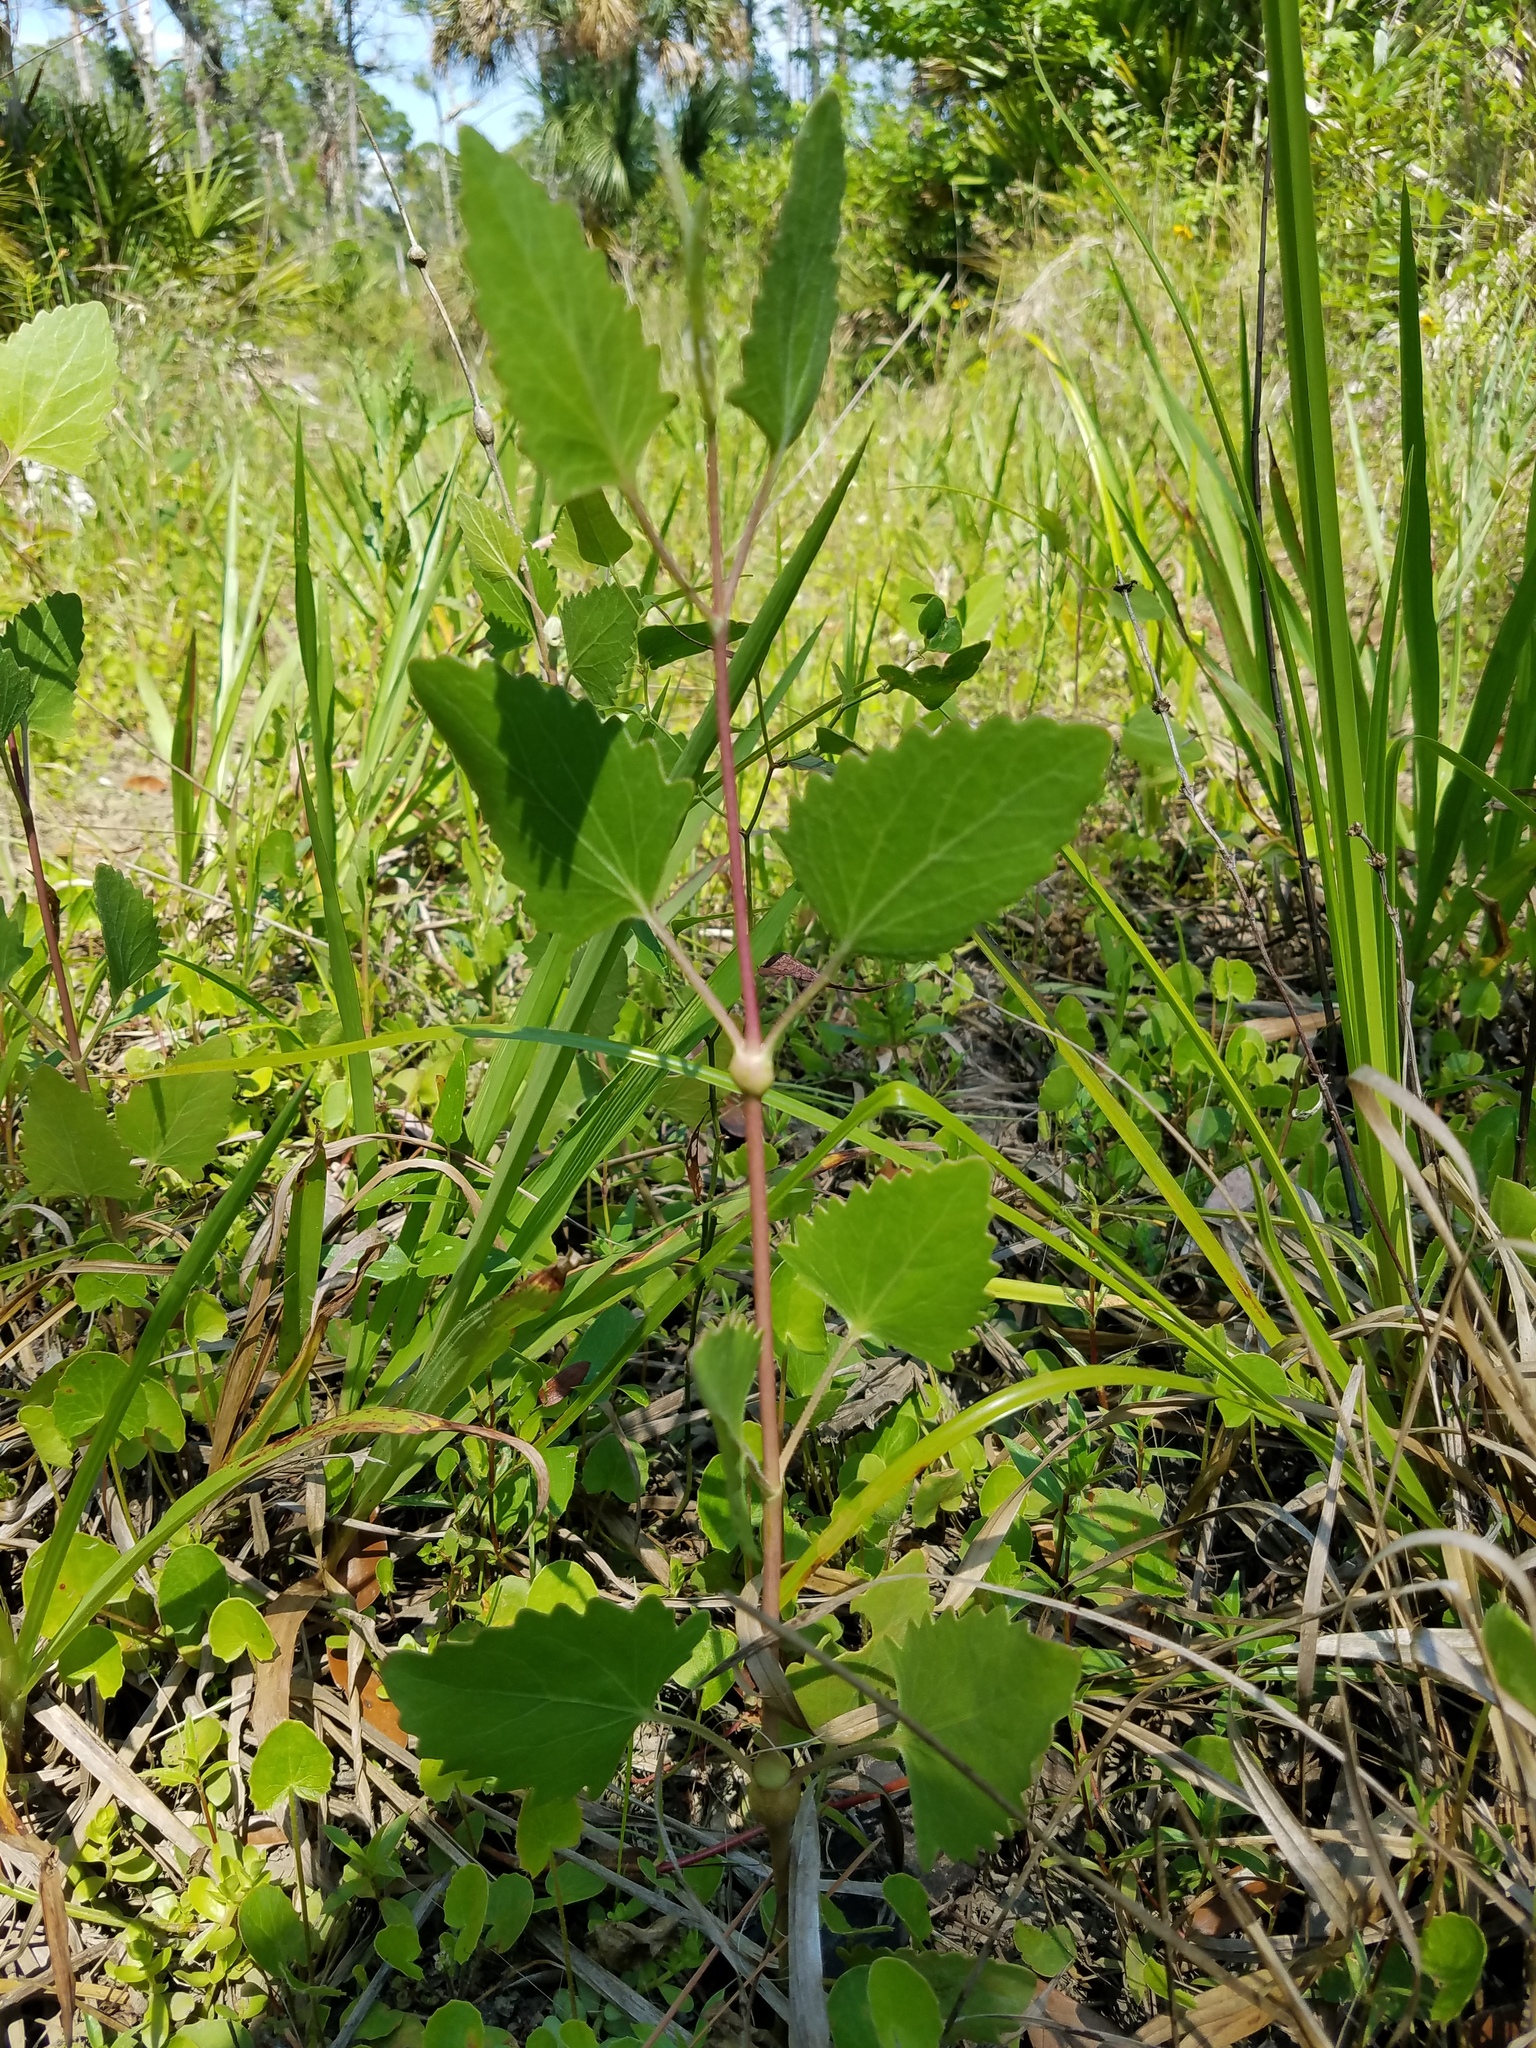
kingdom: Plantae
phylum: Tracheophyta
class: Magnoliopsida
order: Asterales
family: Asteraceae
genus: Eupatorium
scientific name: Eupatorium mikanioides
